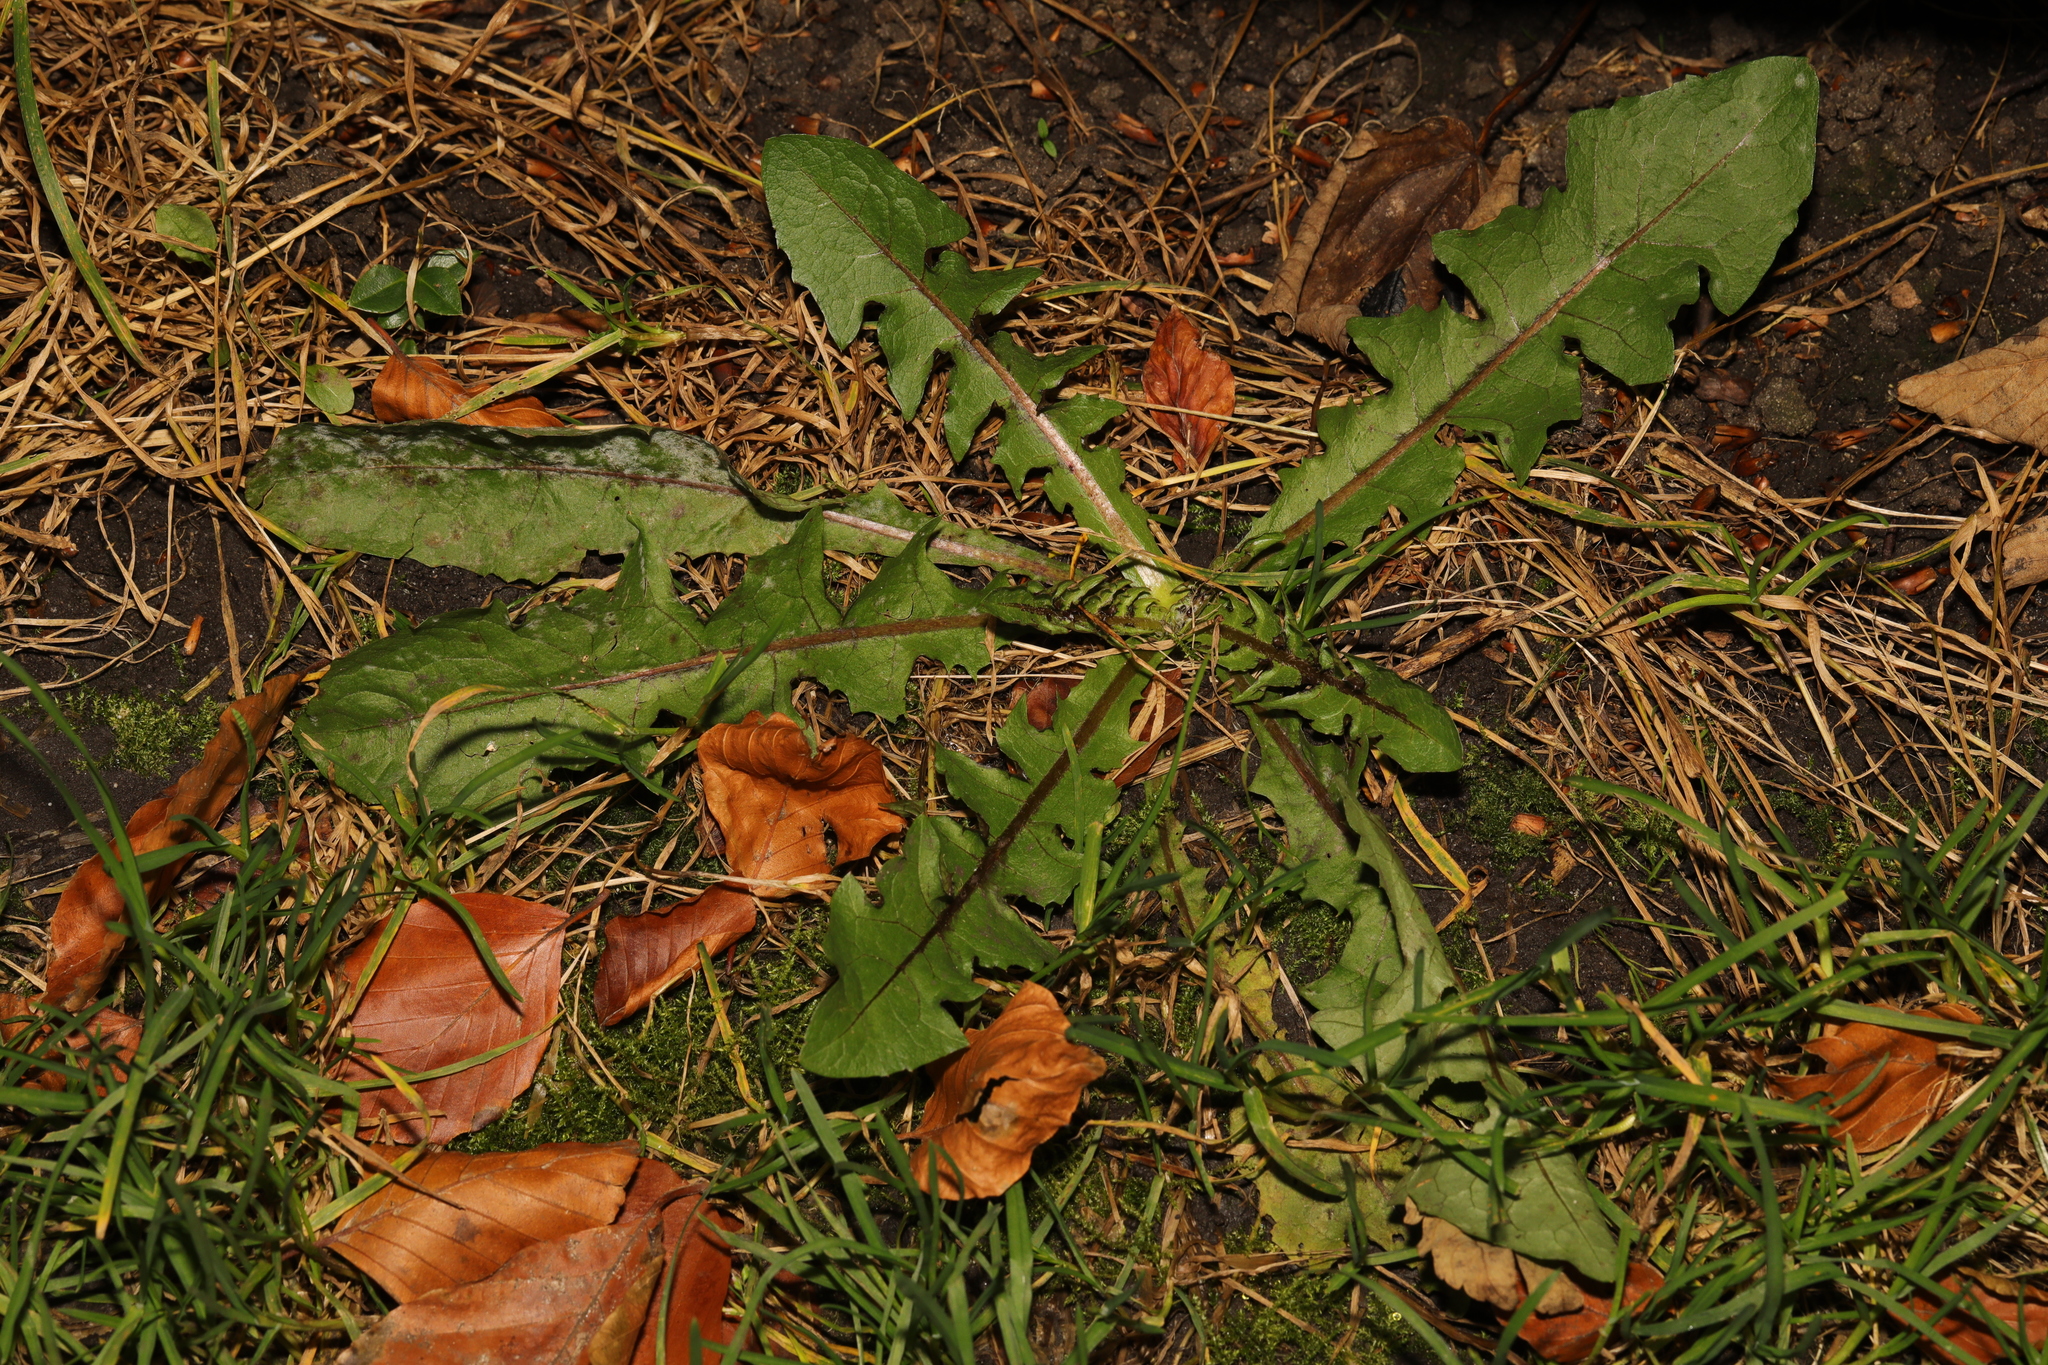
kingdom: Plantae
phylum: Tracheophyta
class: Magnoliopsida
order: Asterales
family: Asteraceae
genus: Taraxacum
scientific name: Taraxacum officinale
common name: Common dandelion
